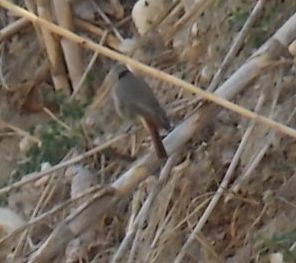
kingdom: Animalia
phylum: Chordata
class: Aves
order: Passeriformes
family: Muscicapidae
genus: Phoenicurus
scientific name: Phoenicurus ochruros
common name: Black redstart
